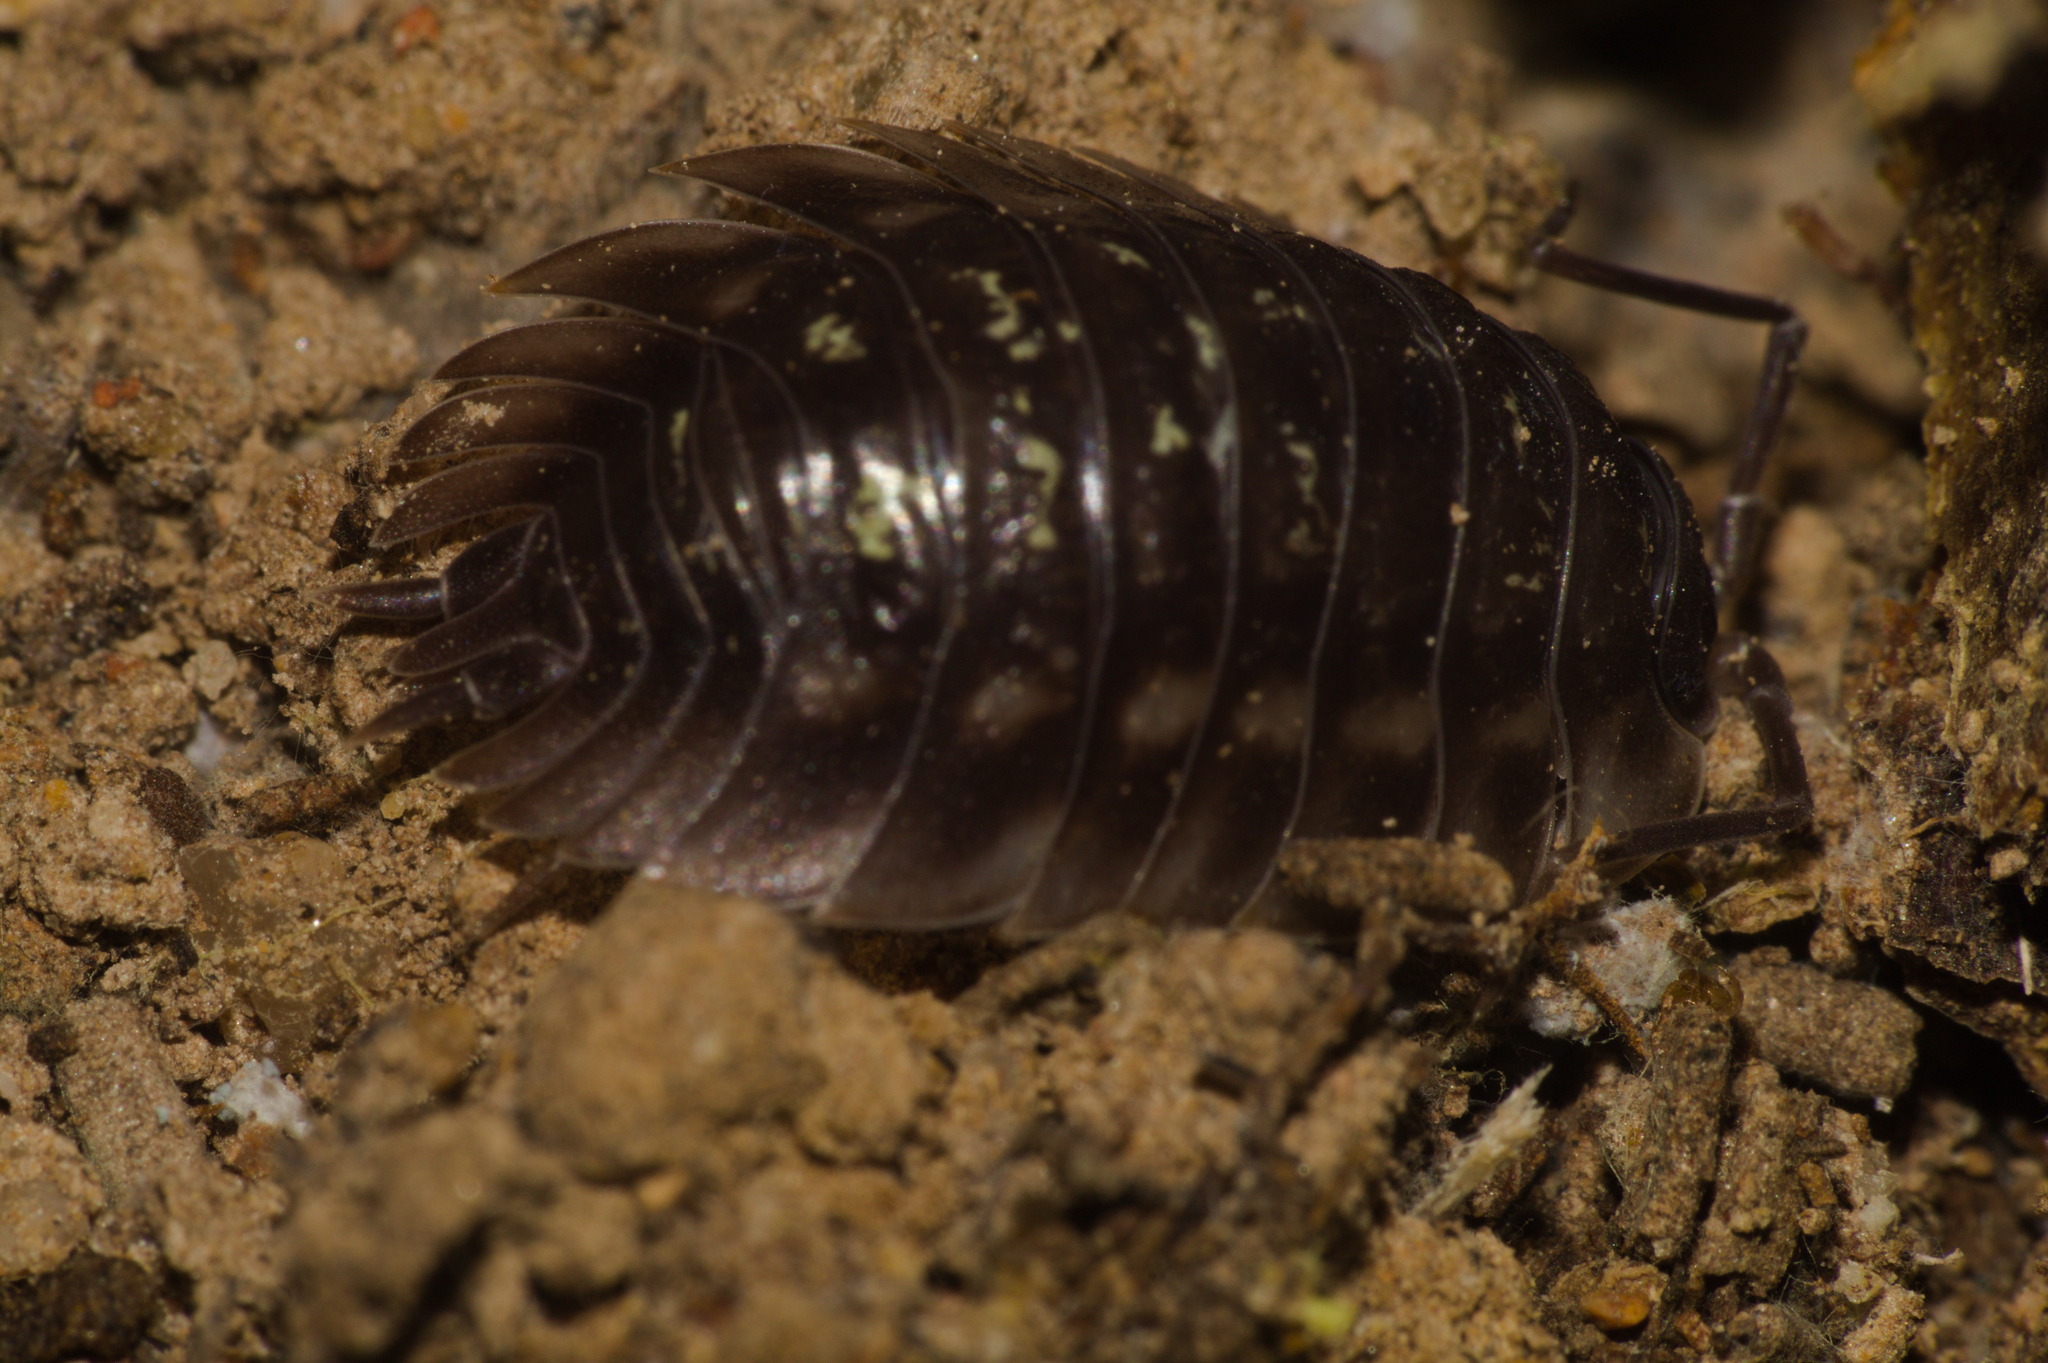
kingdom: Animalia
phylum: Arthropoda
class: Malacostraca
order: Isopoda
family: Oniscidae
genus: Oniscus
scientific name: Oniscus asellus
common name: Common shiny woodlouse
